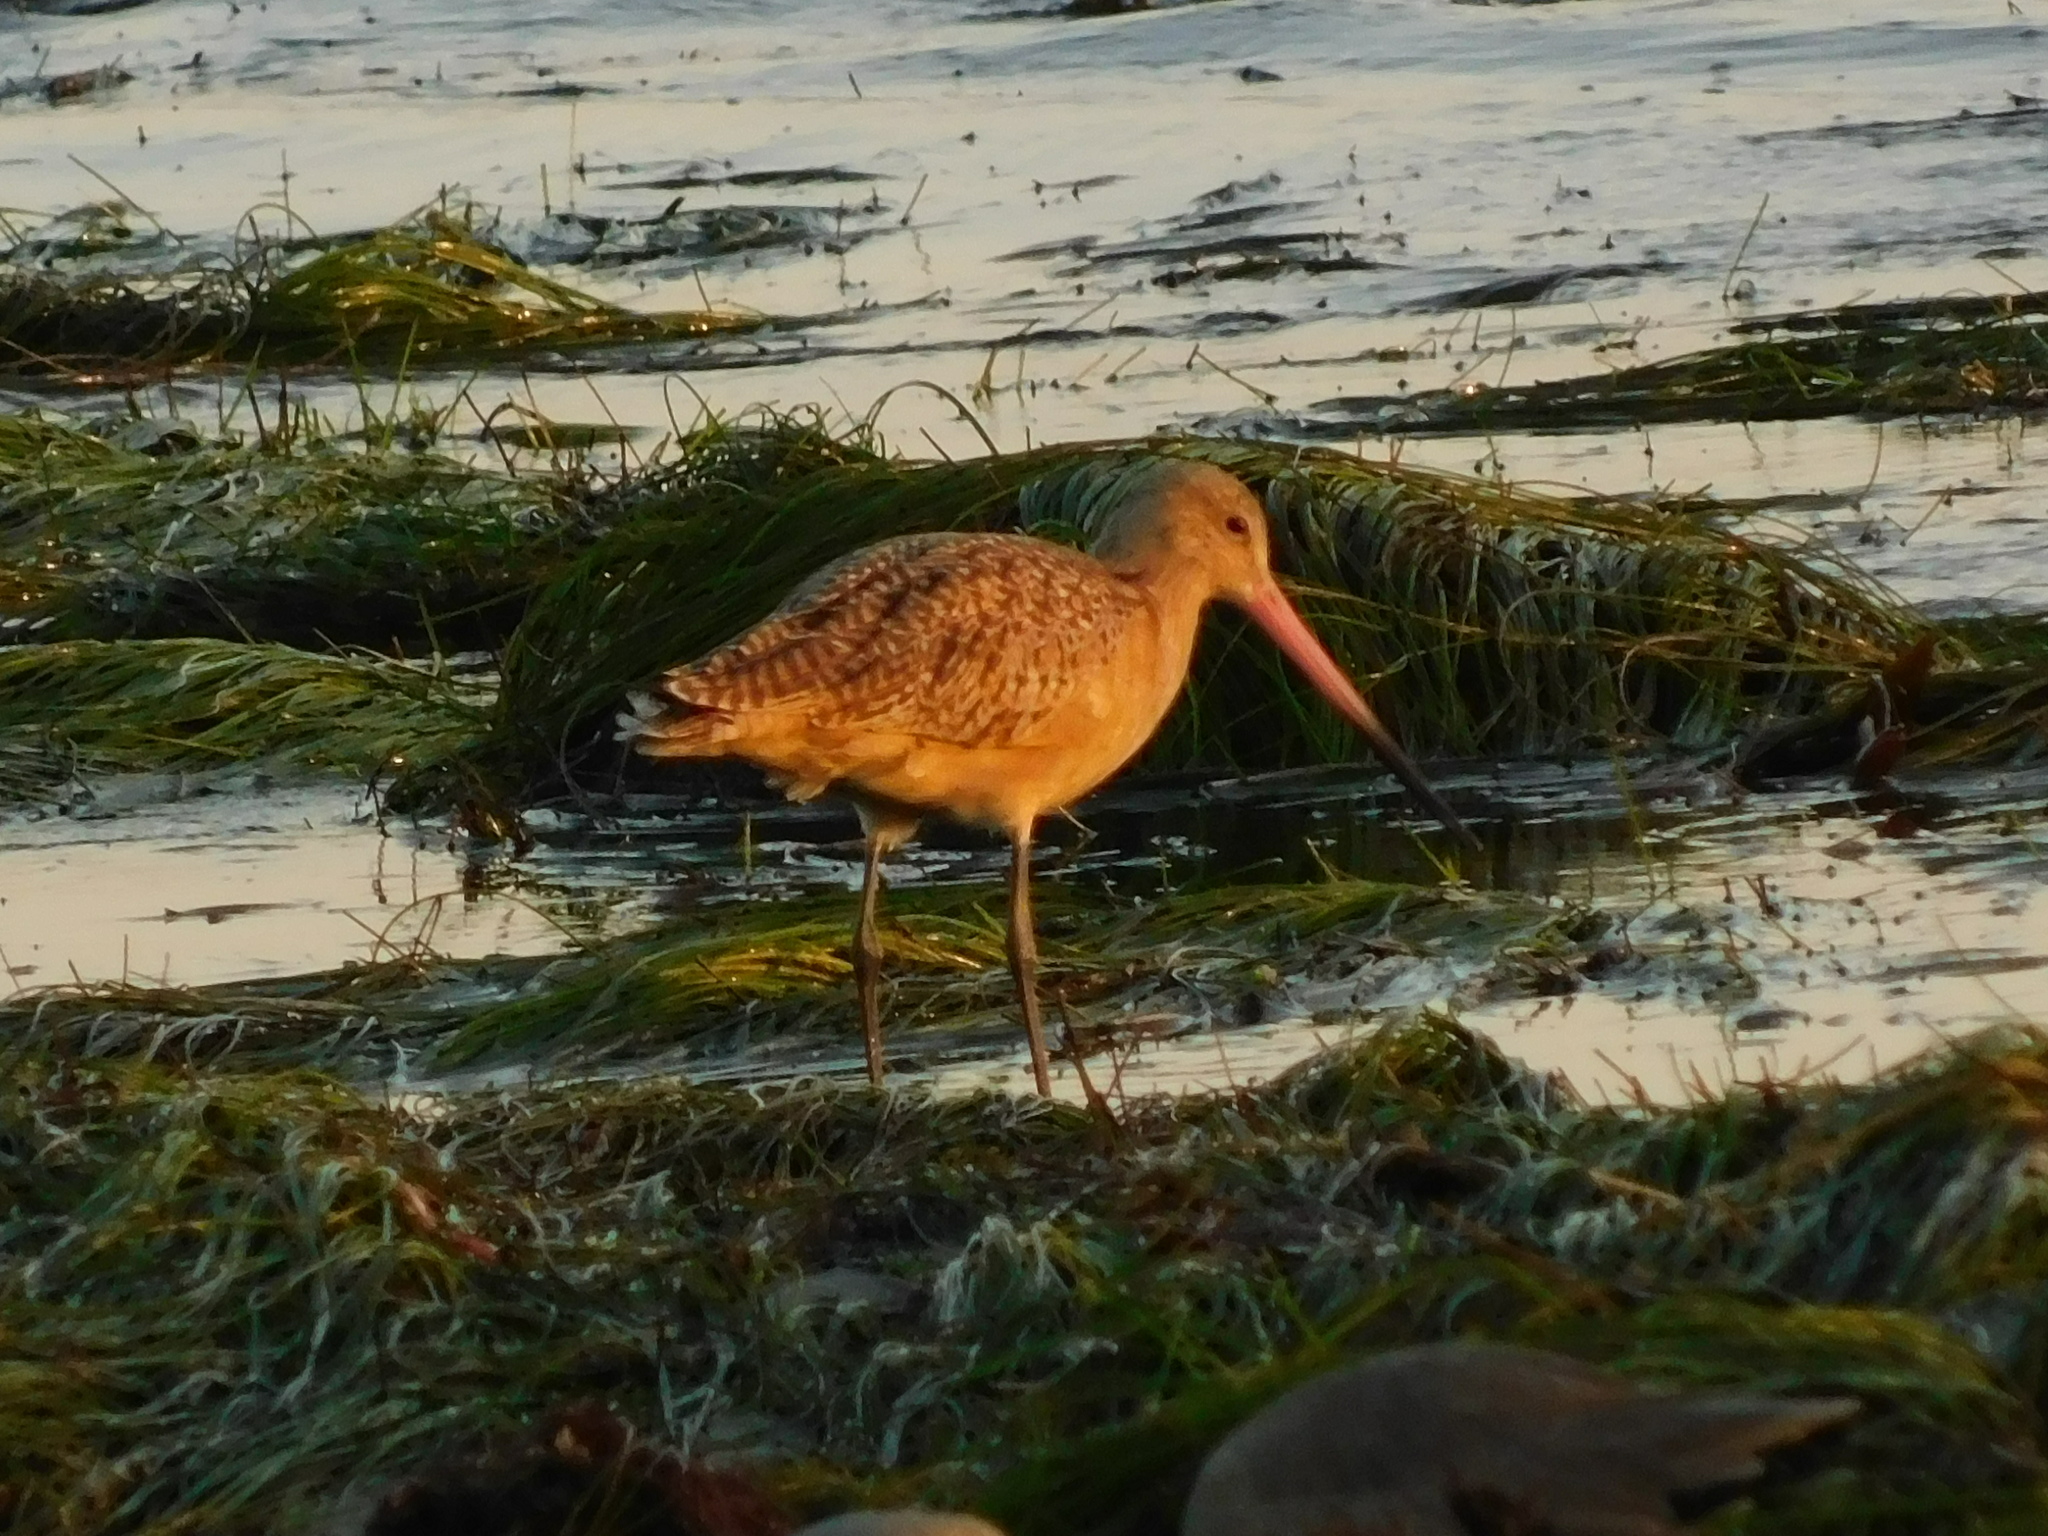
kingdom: Animalia
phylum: Chordata
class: Aves
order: Charadriiformes
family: Scolopacidae
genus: Limosa
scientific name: Limosa fedoa
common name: Marbled godwit
